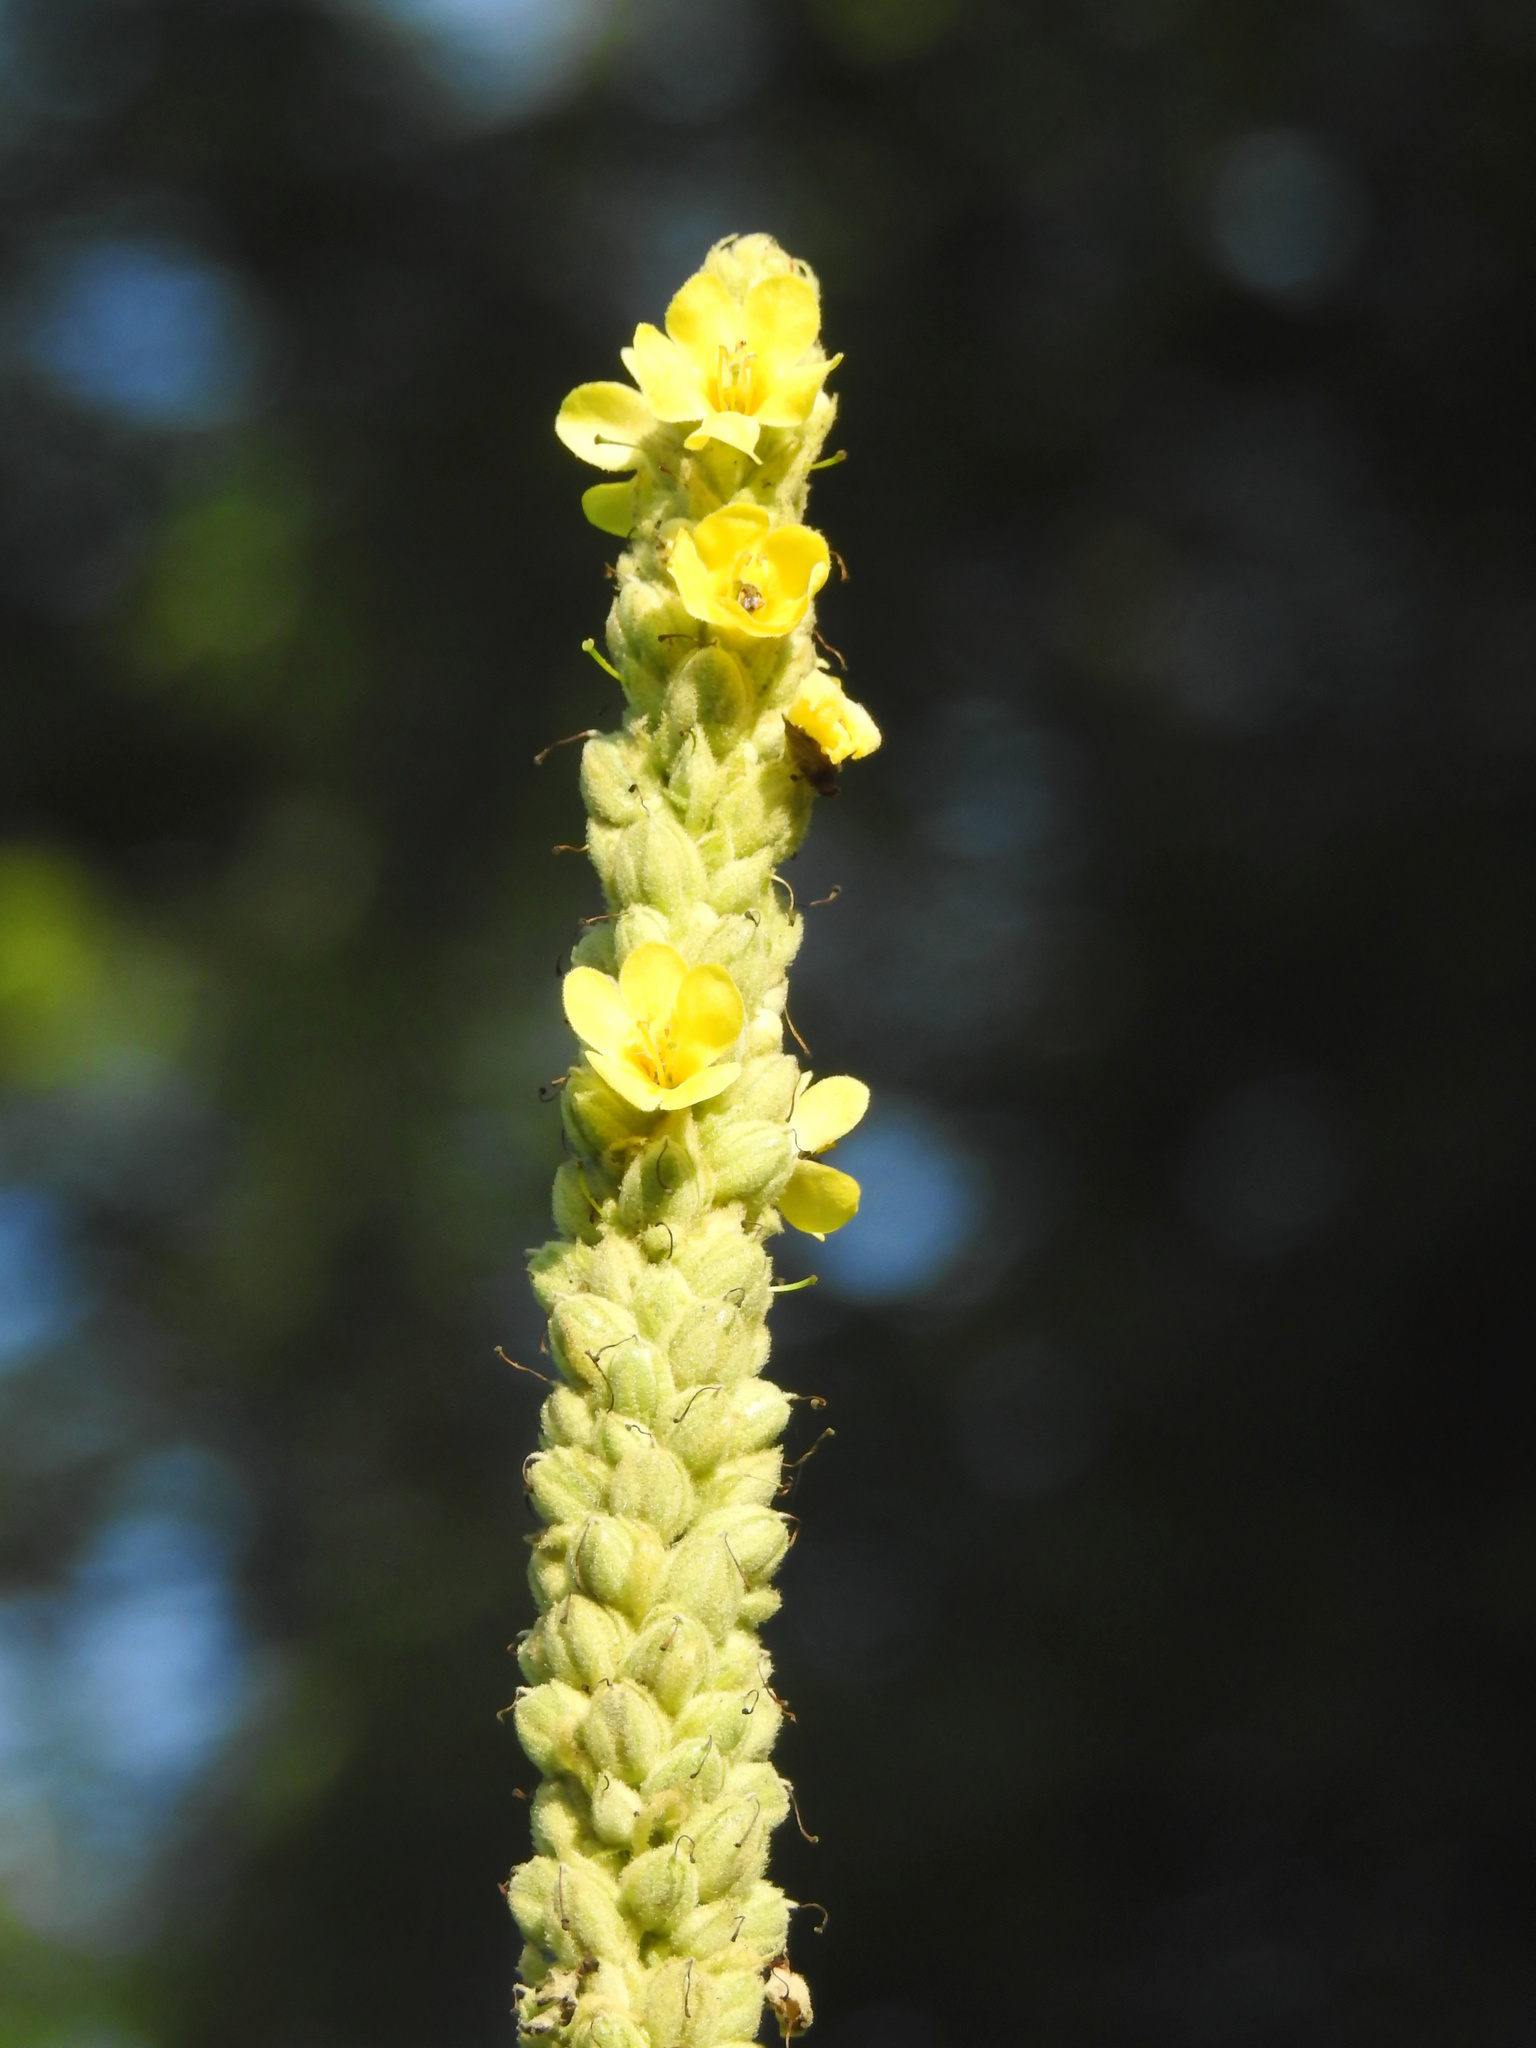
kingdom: Plantae
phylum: Tracheophyta
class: Magnoliopsida
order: Lamiales
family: Scrophulariaceae
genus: Verbascum
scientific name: Verbascum thapsus
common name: Common mullein
